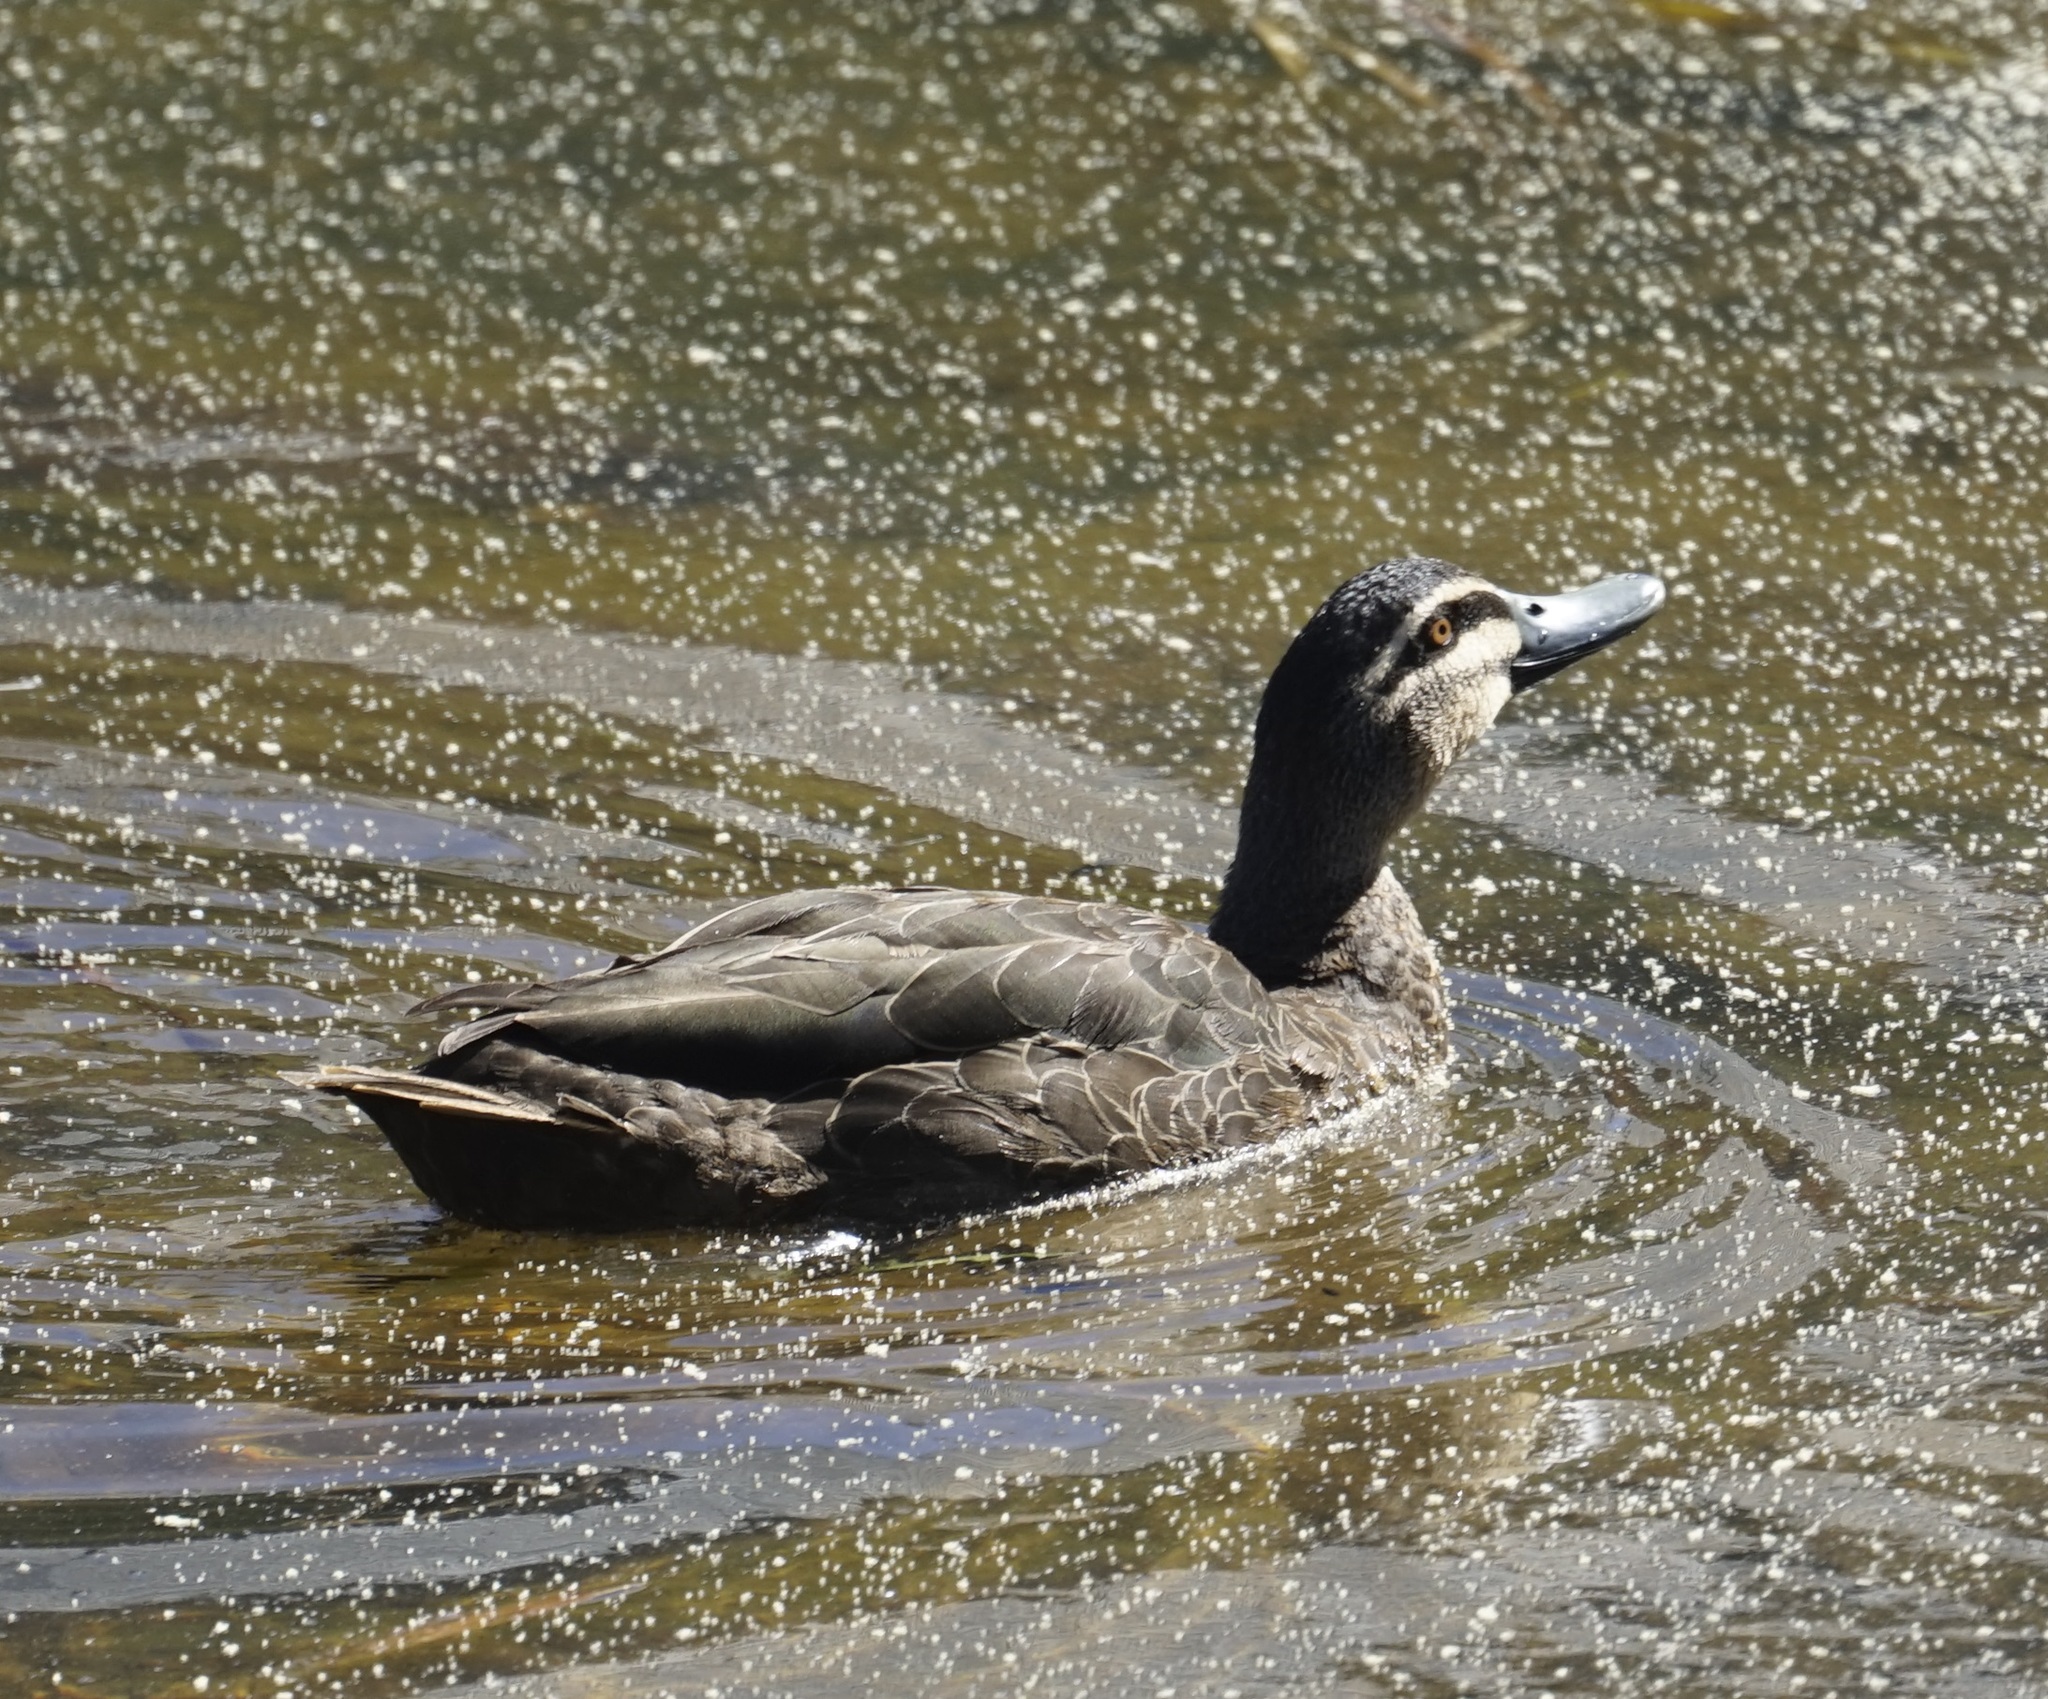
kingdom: Animalia
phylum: Chordata
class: Aves
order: Anseriformes
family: Anatidae
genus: Anas
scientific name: Anas superciliosa
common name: Pacific black duck
